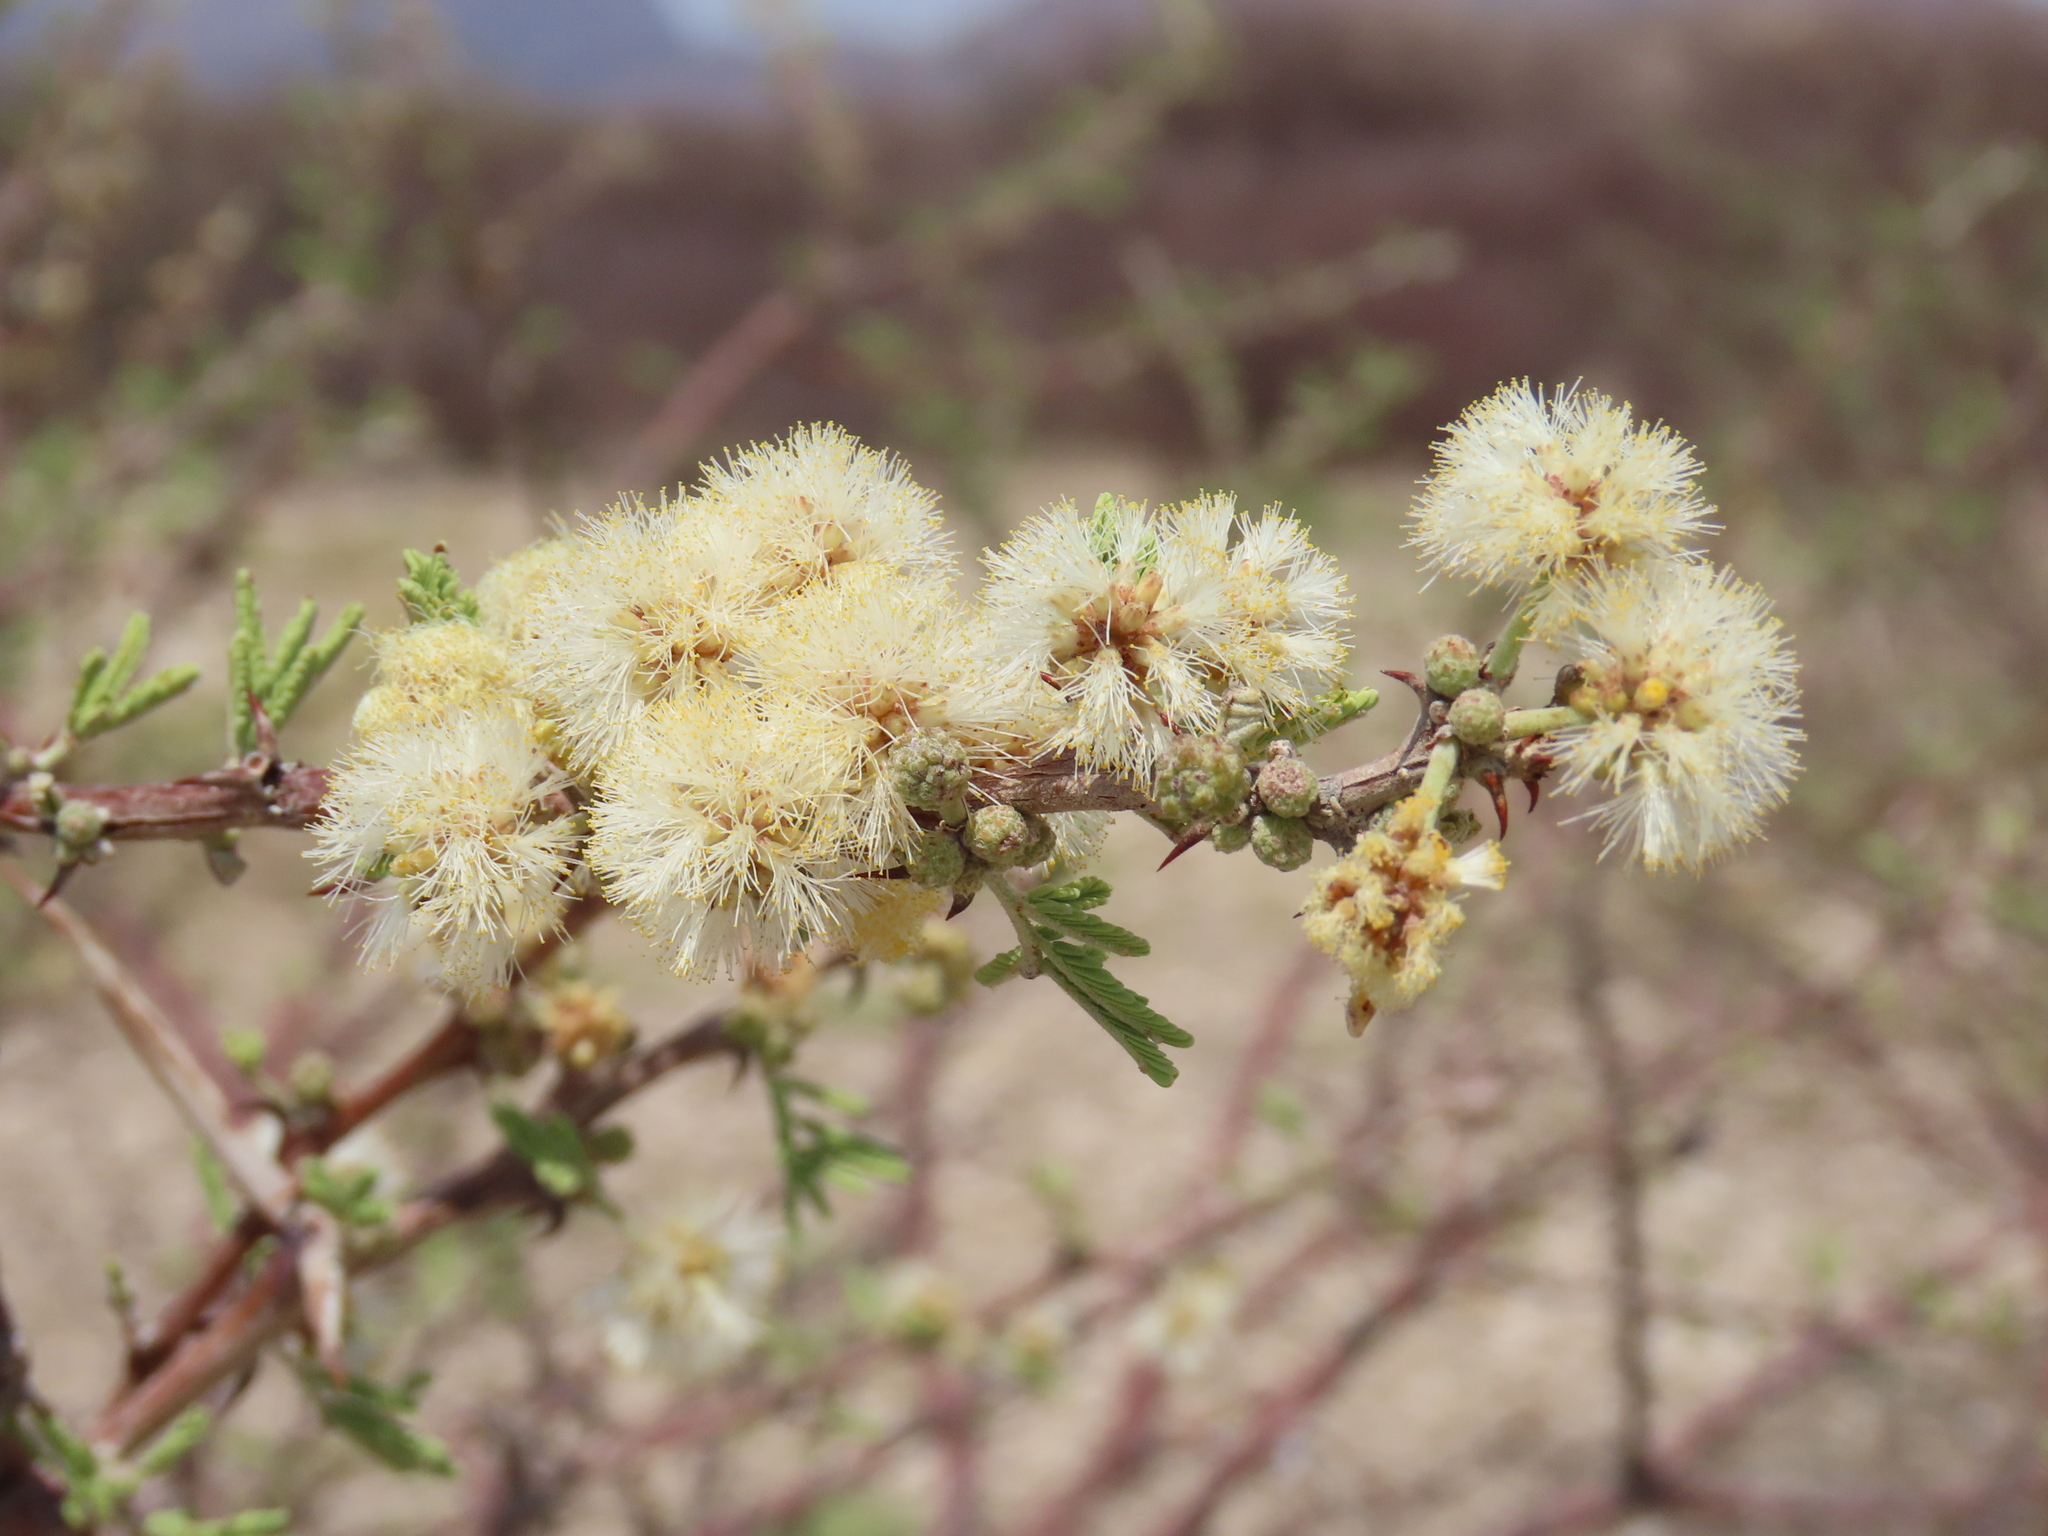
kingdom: Plantae
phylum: Tracheophyta
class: Magnoliopsida
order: Fabales
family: Fabaceae
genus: Vachellia
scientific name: Vachellia reficiens
